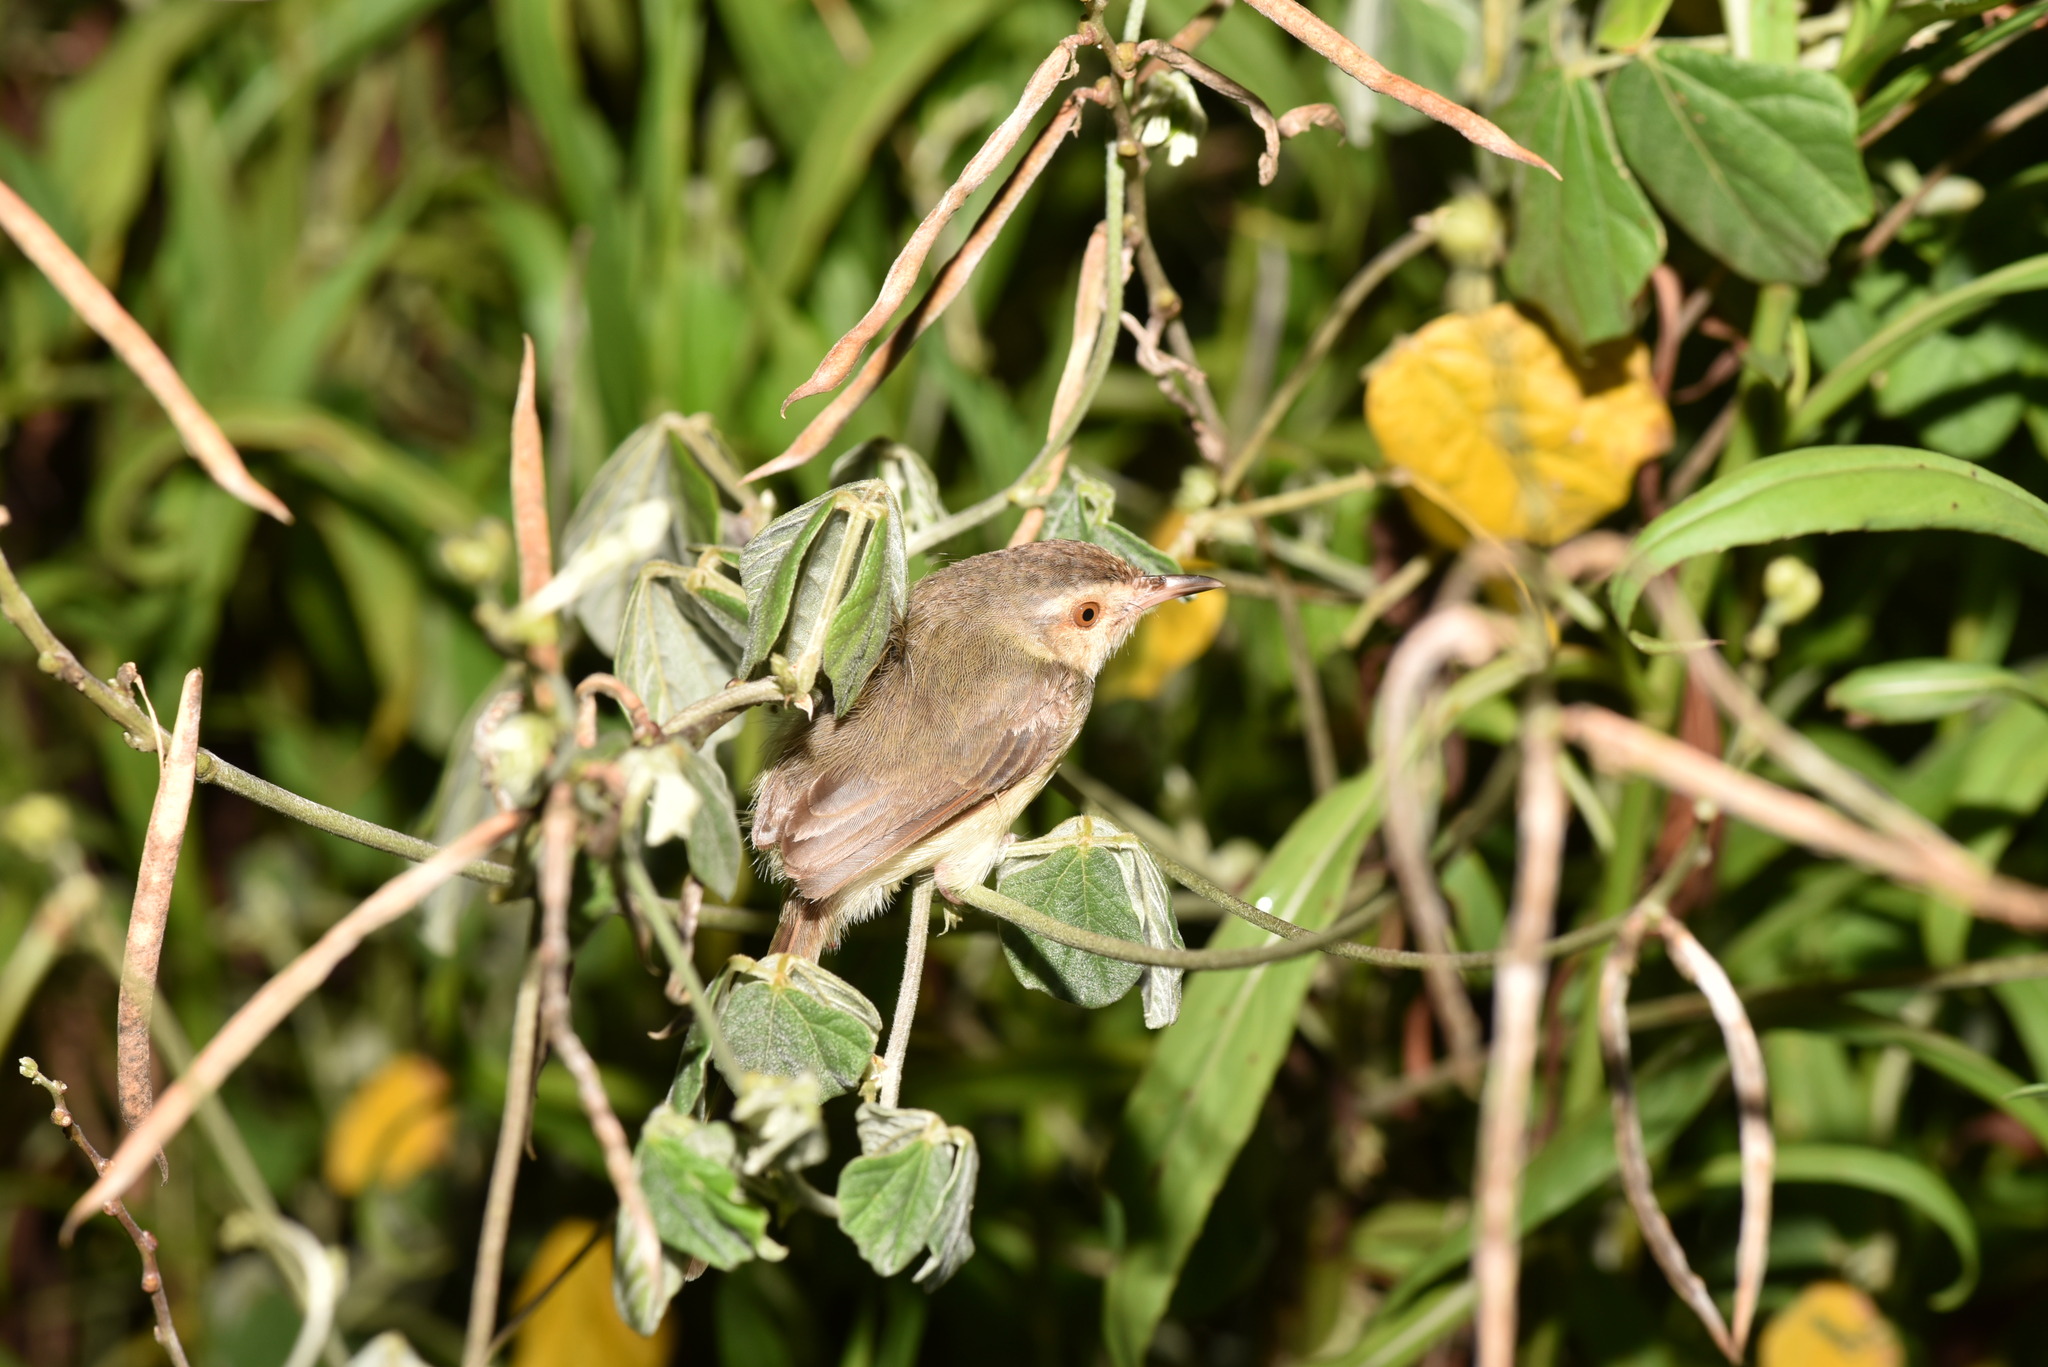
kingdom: Animalia
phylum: Chordata
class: Aves
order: Passeriformes
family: Cisticolidae
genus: Prinia
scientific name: Prinia inornata
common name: Plain prinia
